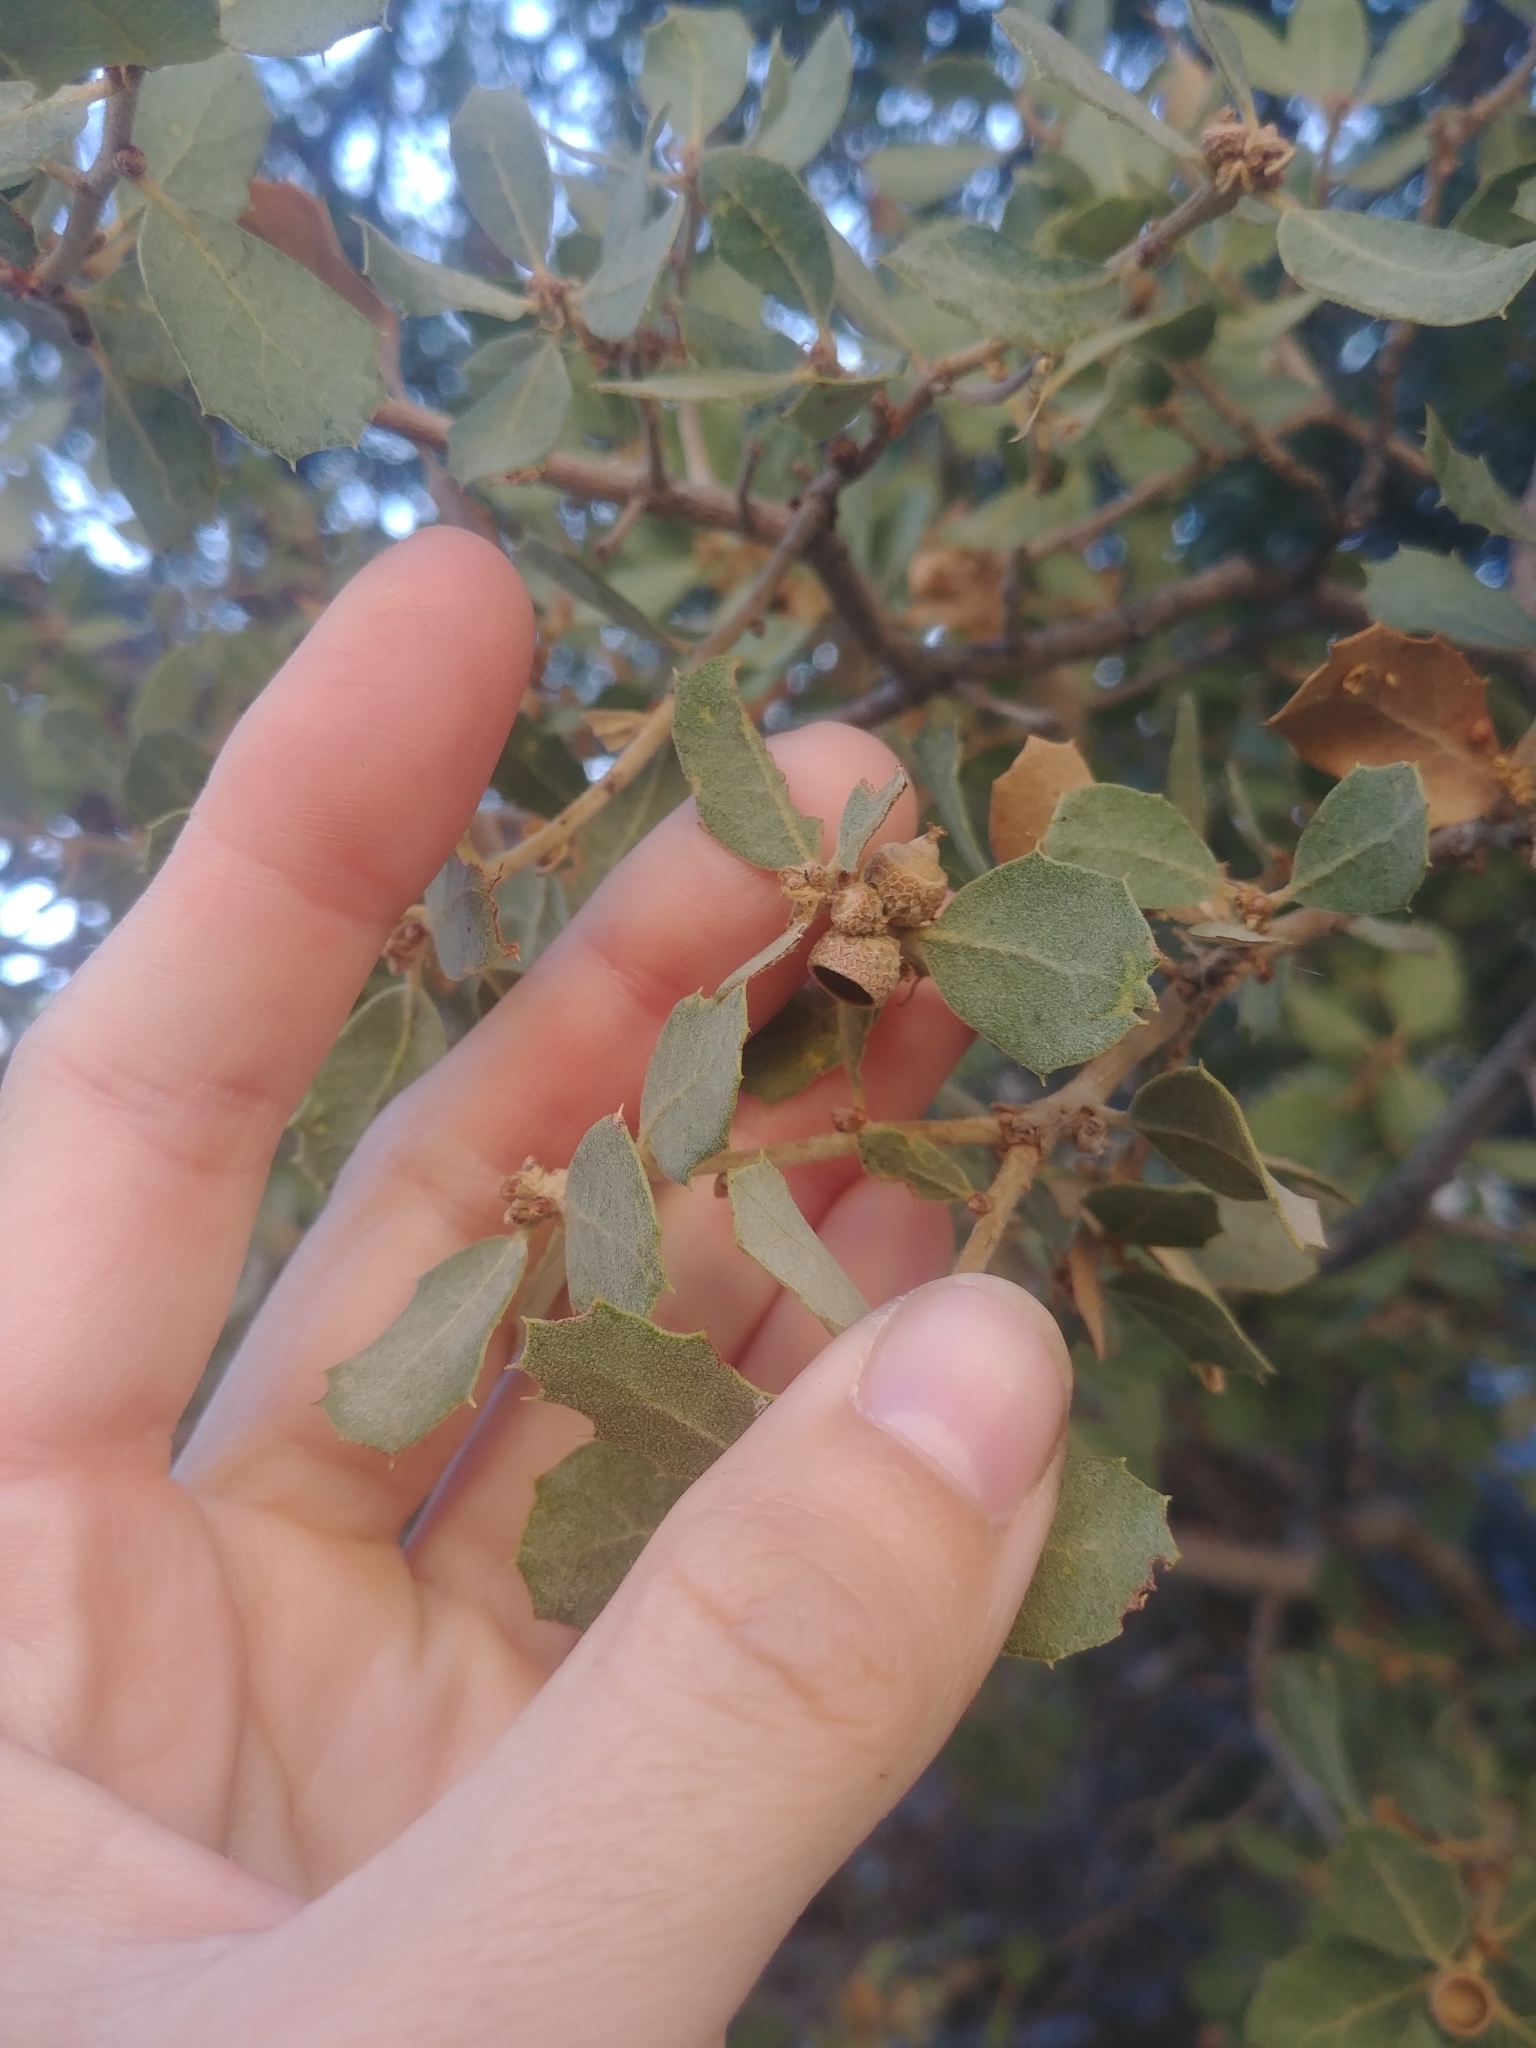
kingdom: Plantae
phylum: Tracheophyta
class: Magnoliopsida
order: Fagales
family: Fagaceae
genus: Quercus
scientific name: Quercus cornelius-mulleri
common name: Muller oak
